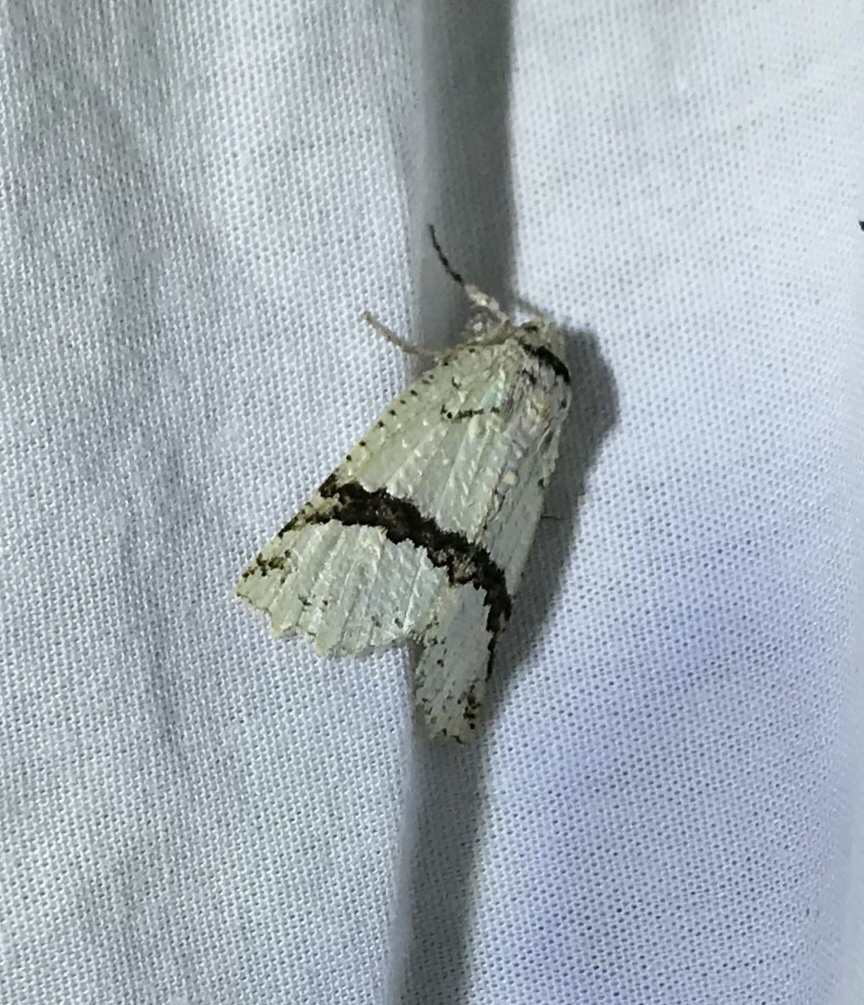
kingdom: Animalia
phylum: Arthropoda
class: Insecta
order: Lepidoptera
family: Geometridae
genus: Declana
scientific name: Declana floccosa
